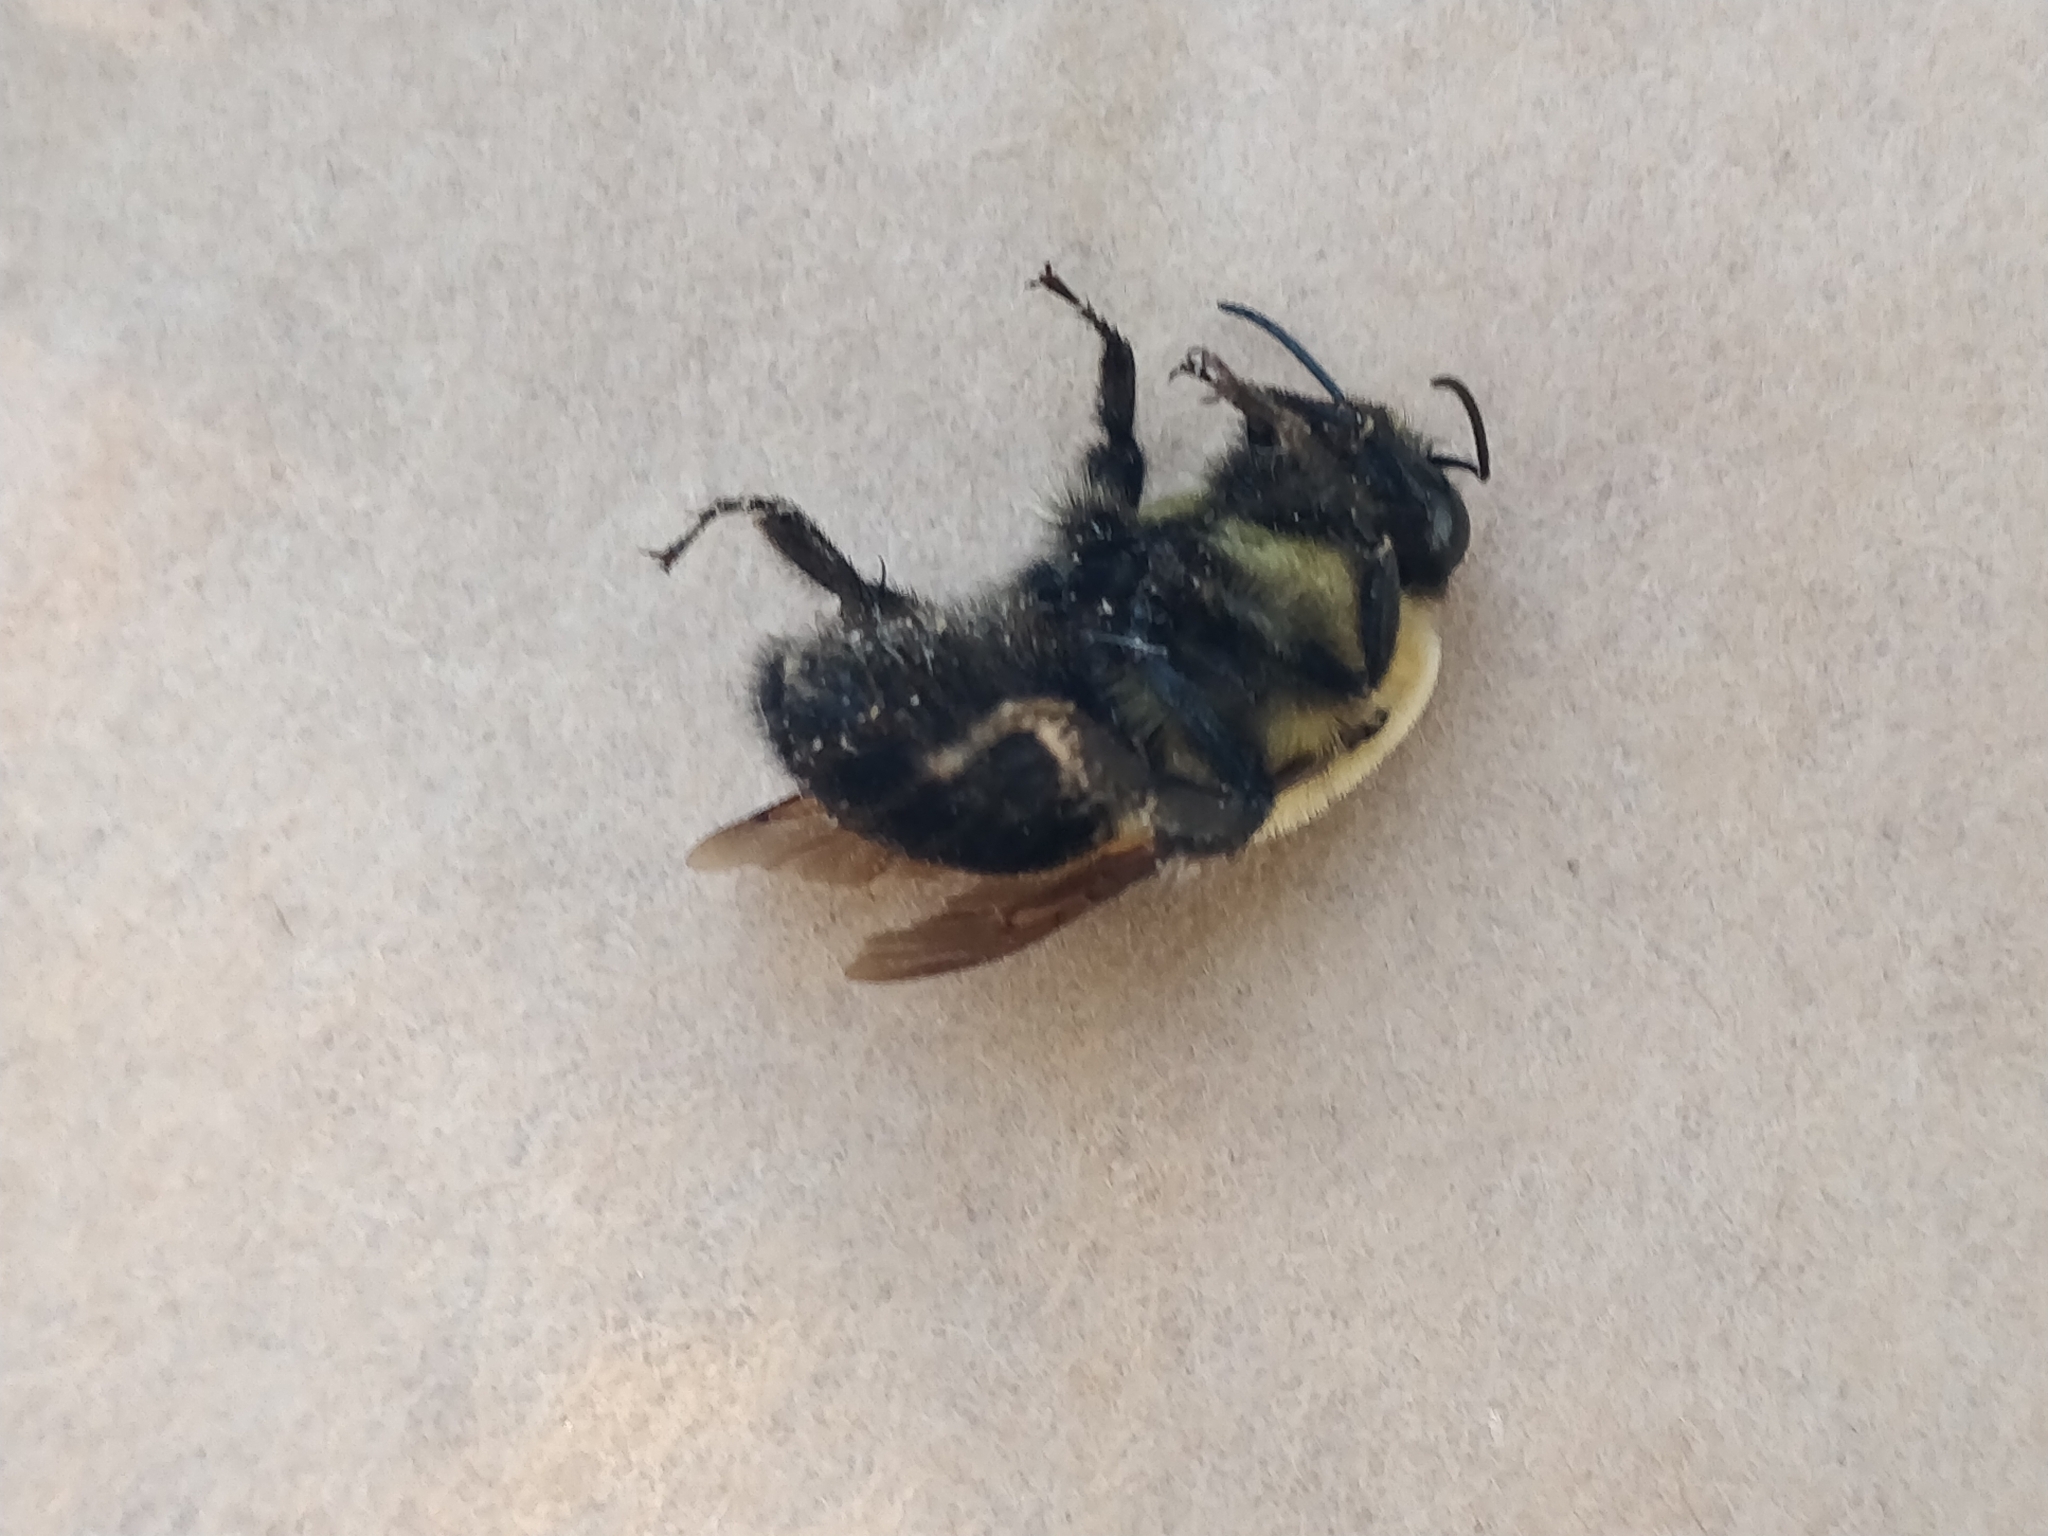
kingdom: Animalia
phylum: Arthropoda
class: Insecta
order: Hymenoptera
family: Apidae
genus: Bombus
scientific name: Bombus griseocollis
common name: Brown-belted bumble bee
